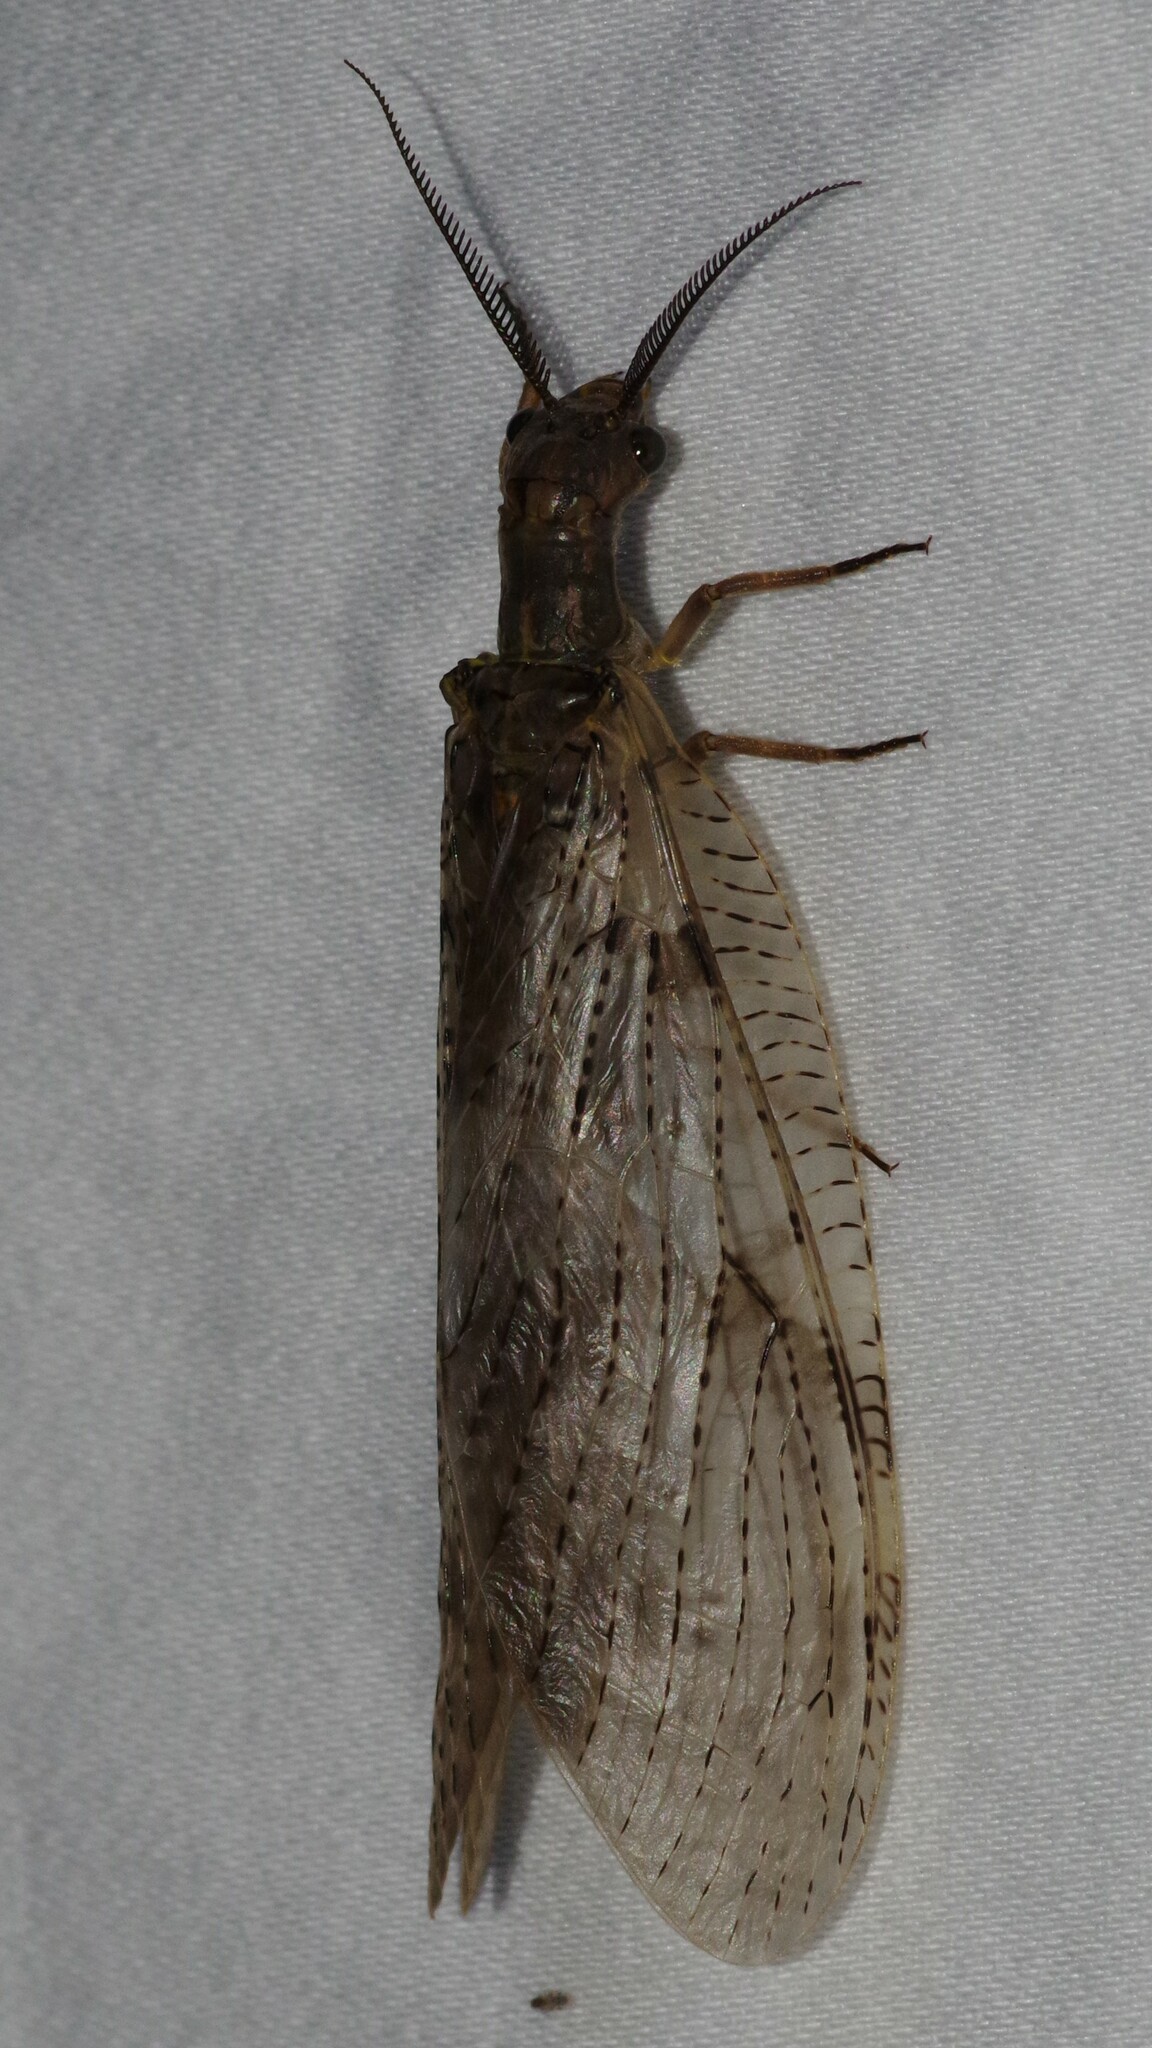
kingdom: Animalia
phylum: Arthropoda
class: Insecta
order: Megaloptera
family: Corydalidae
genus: Chauliodes
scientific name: Chauliodes pectinicornis
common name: Summer fishfly
